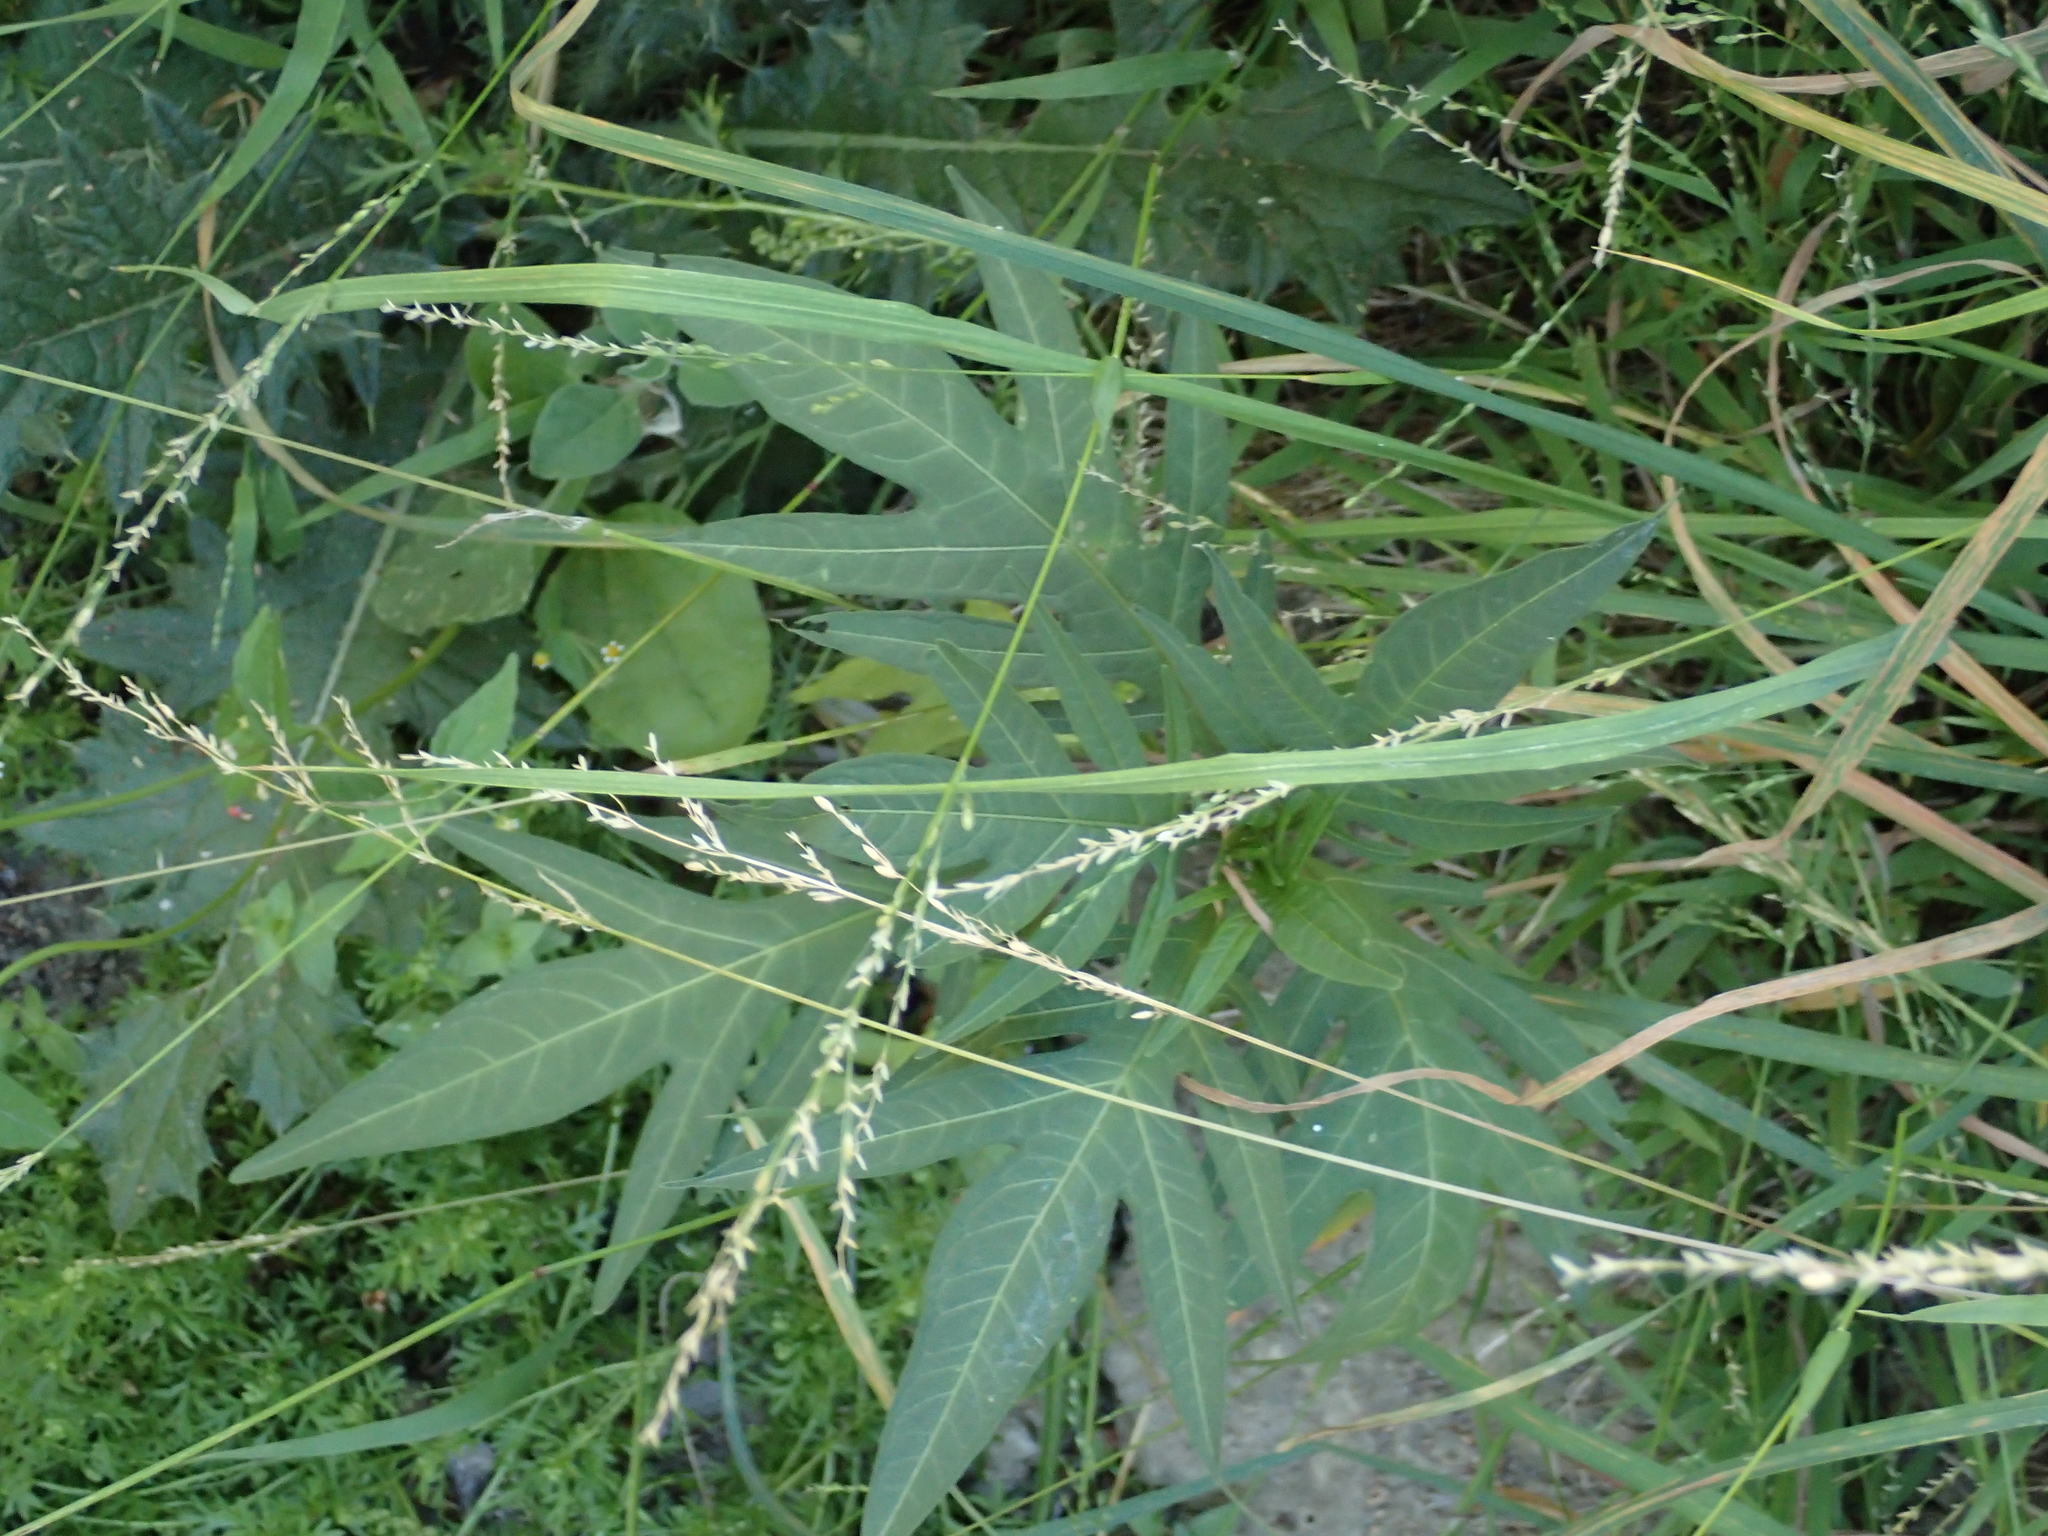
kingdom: Plantae
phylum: Tracheophyta
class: Magnoliopsida
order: Solanales
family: Solanaceae
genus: Solanum
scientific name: Solanum
